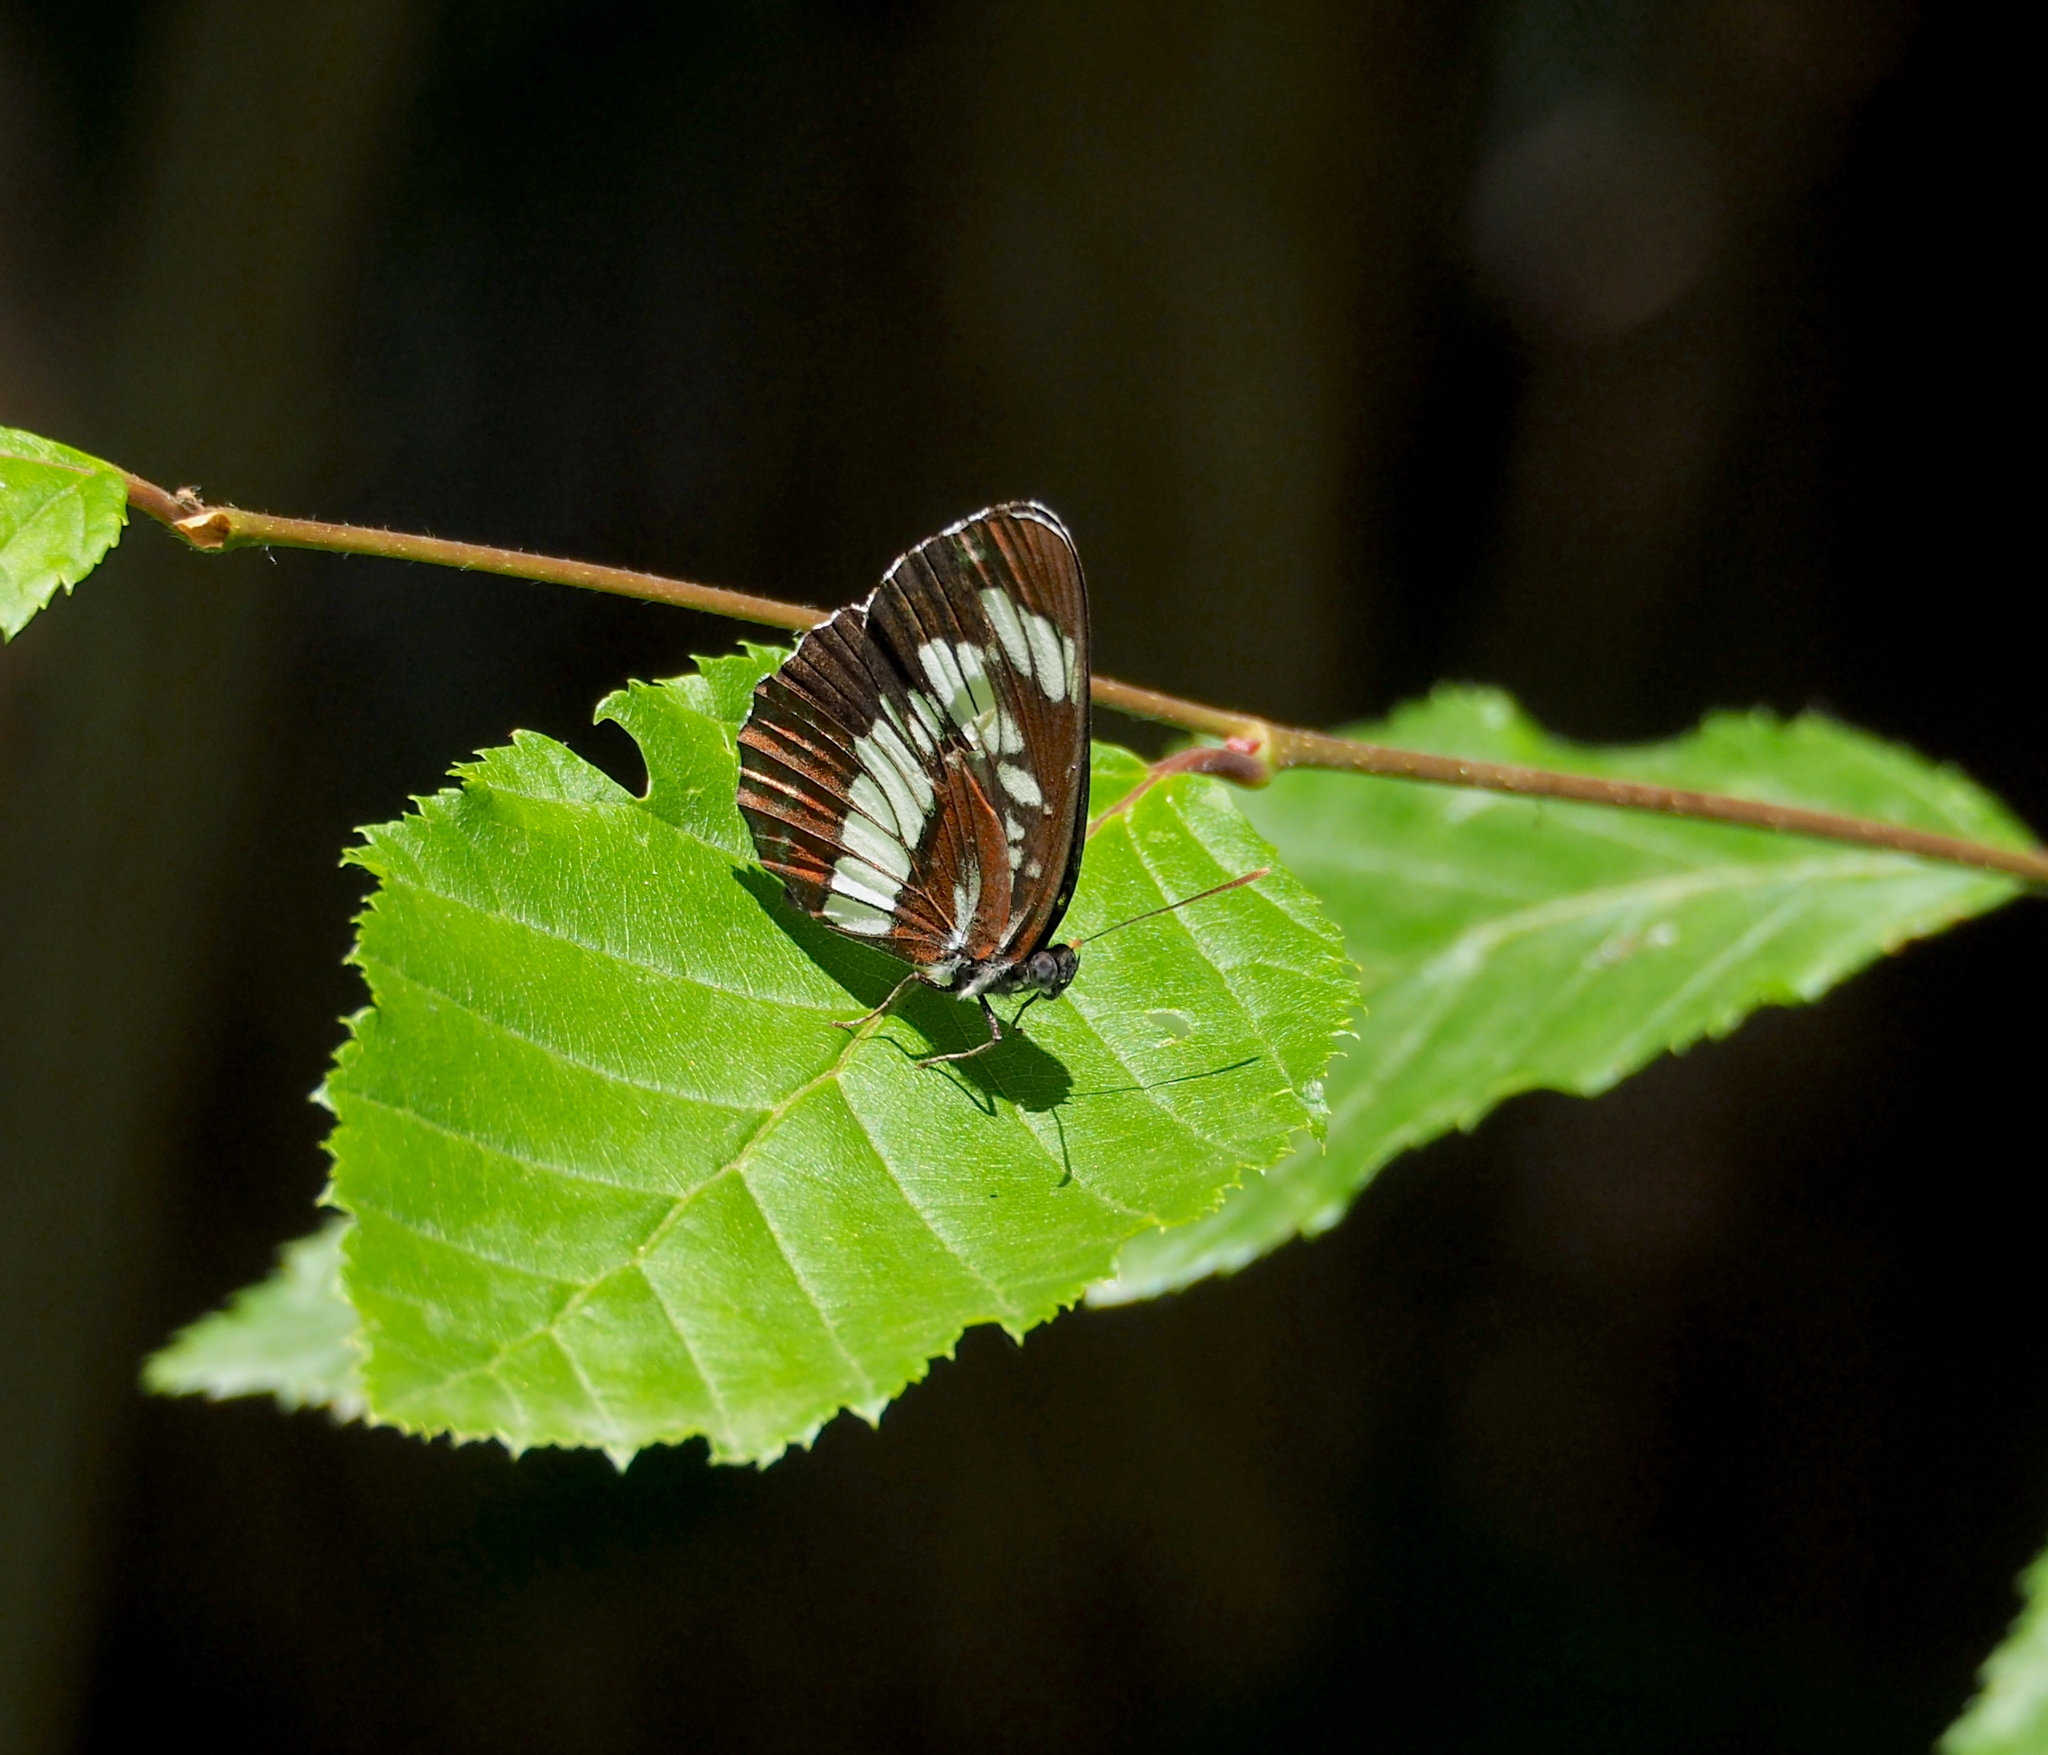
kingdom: Animalia
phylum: Arthropoda
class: Insecta
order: Lepidoptera
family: Nymphalidae
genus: Neptis
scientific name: Neptis rivularis
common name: Hungarian glider
